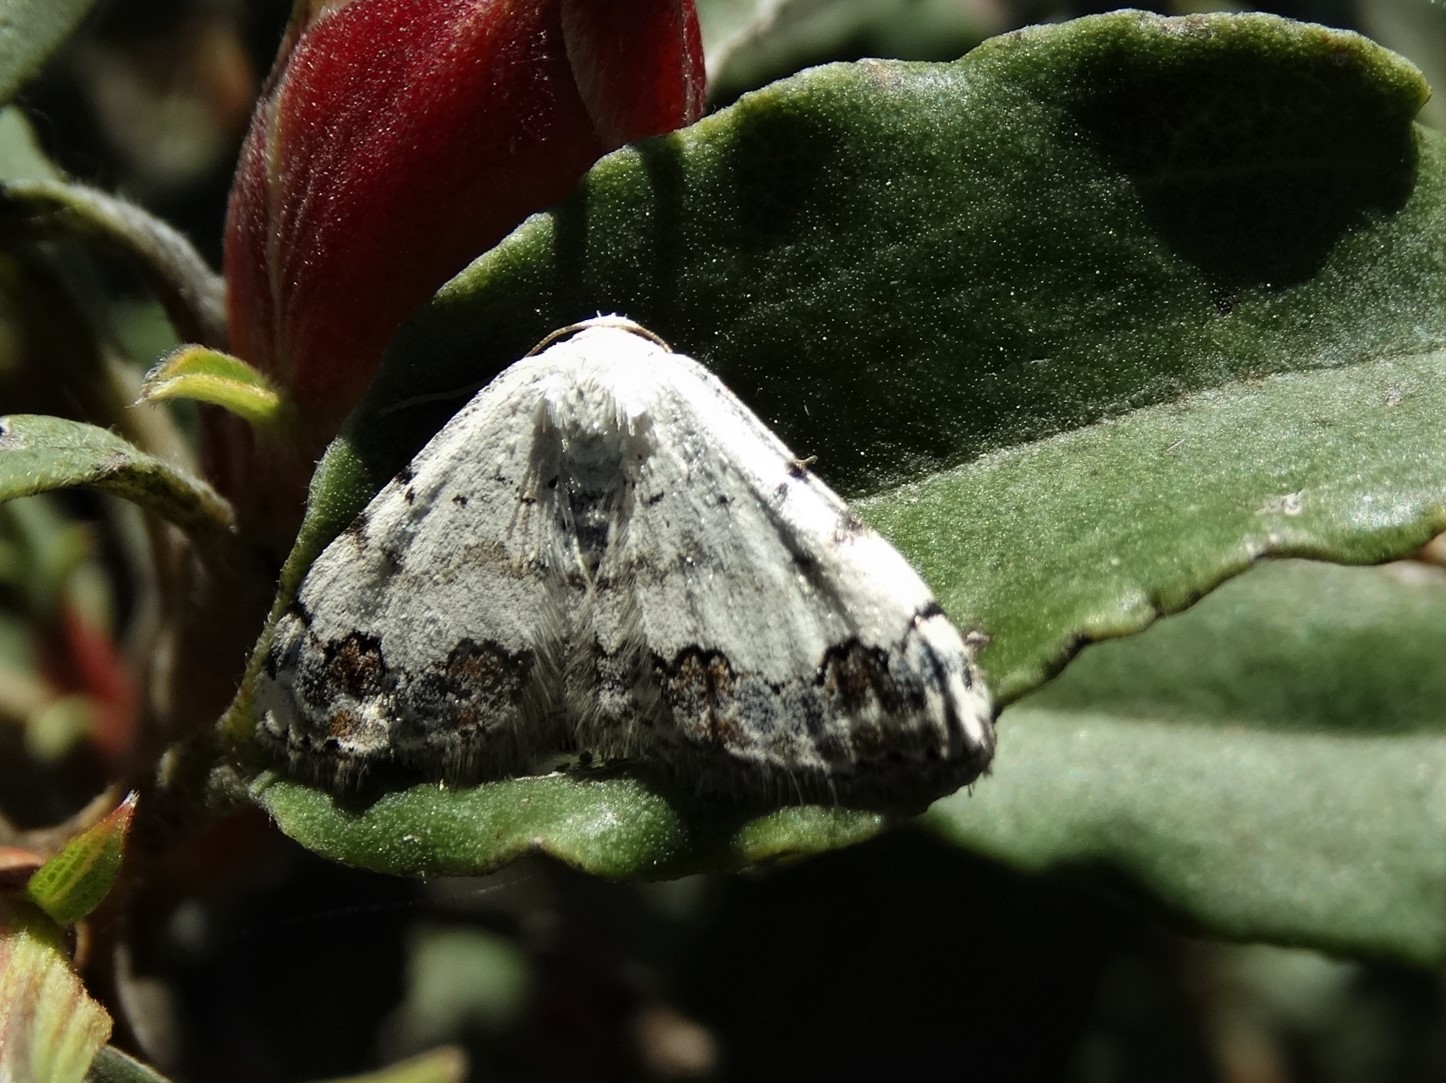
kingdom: Animalia
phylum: Arthropoda
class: Insecta
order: Lepidoptera
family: Geometridae
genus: Scopula
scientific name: Scopula decorata
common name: Middle lace border
